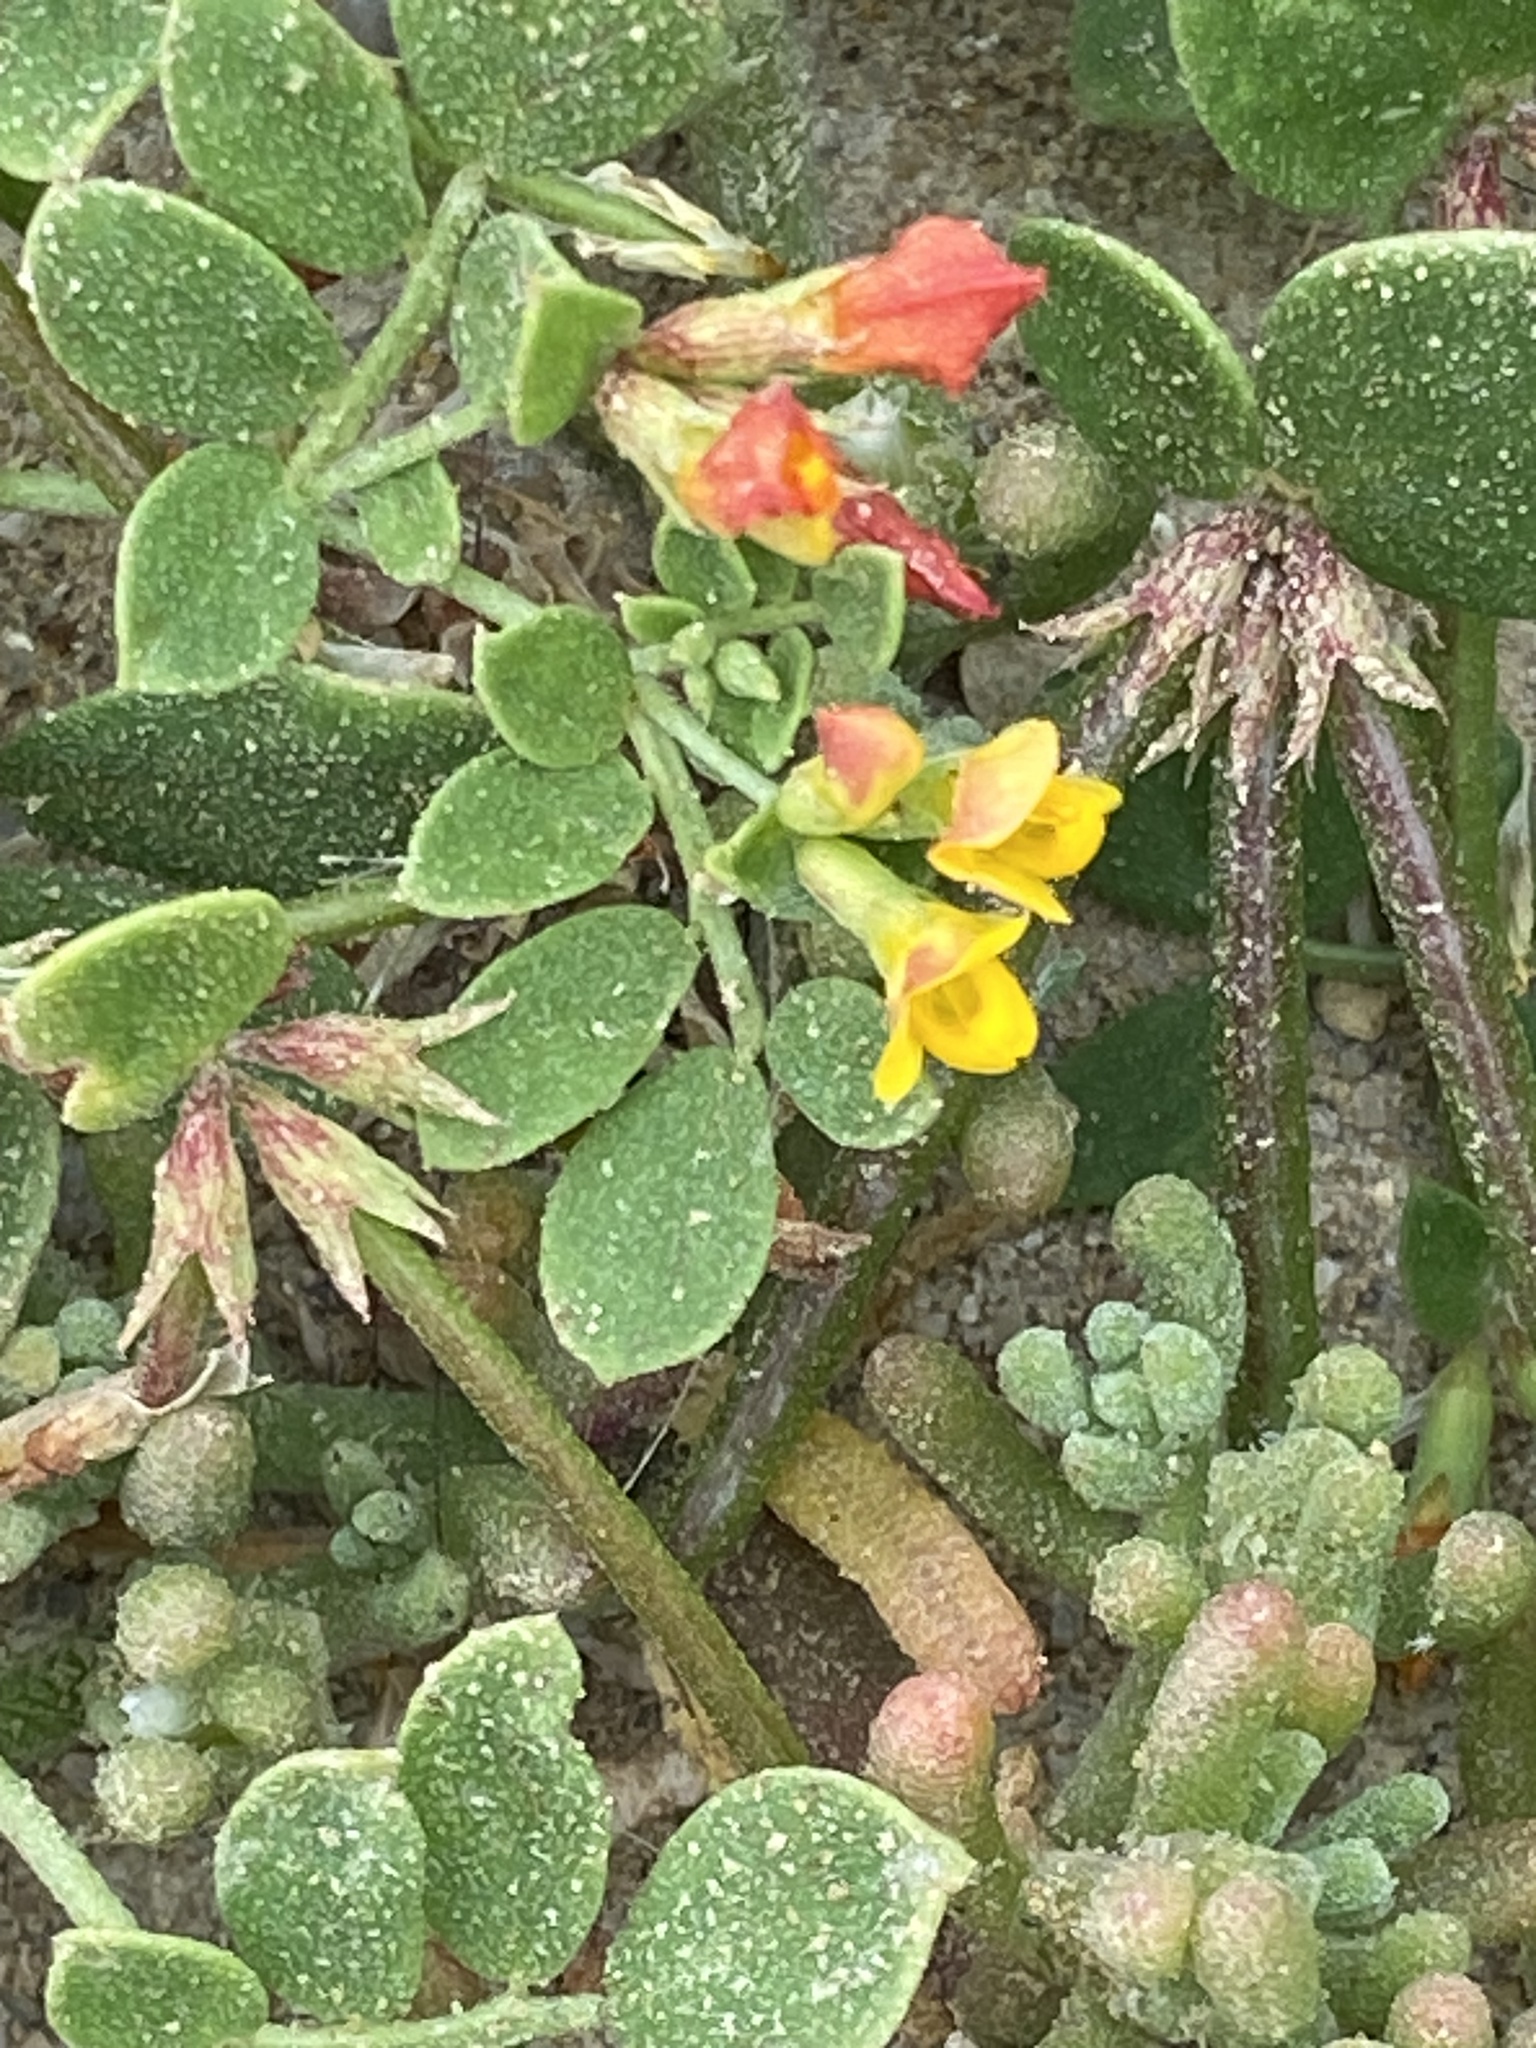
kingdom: Plantae
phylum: Tracheophyta
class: Magnoliopsida
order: Fabales
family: Fabaceae
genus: Acmispon
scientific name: Acmispon maritimus
